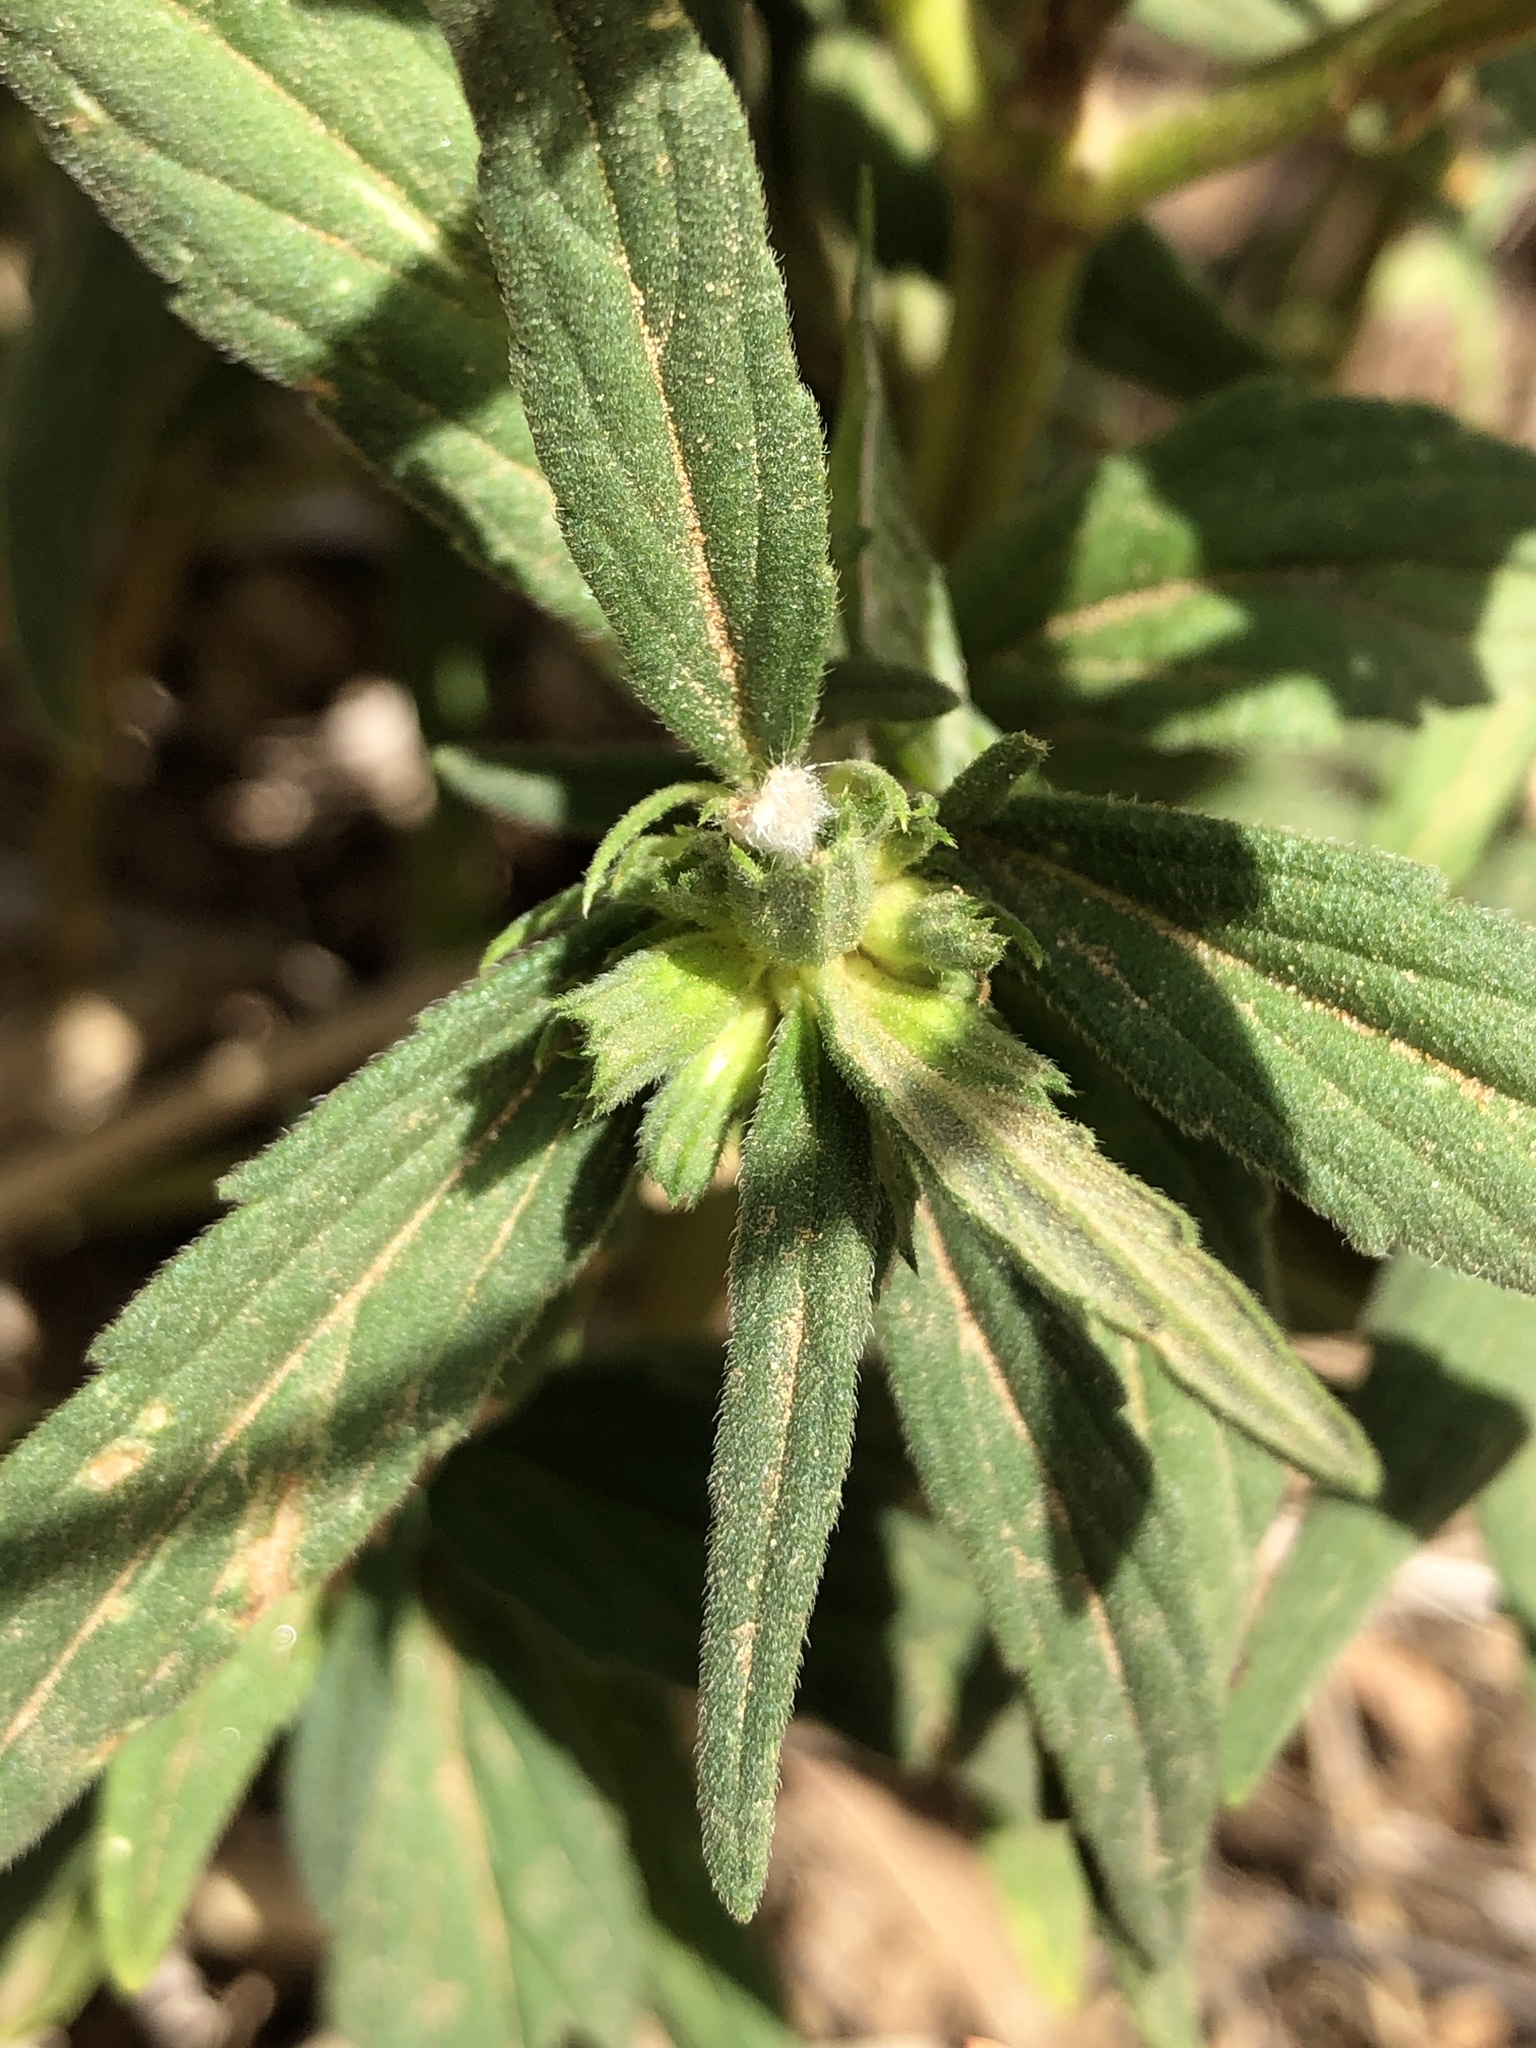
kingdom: Plantae
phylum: Tracheophyta
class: Magnoliopsida
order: Lamiales
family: Lamiaceae
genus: Leucas
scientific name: Leucas lavandulifolia
